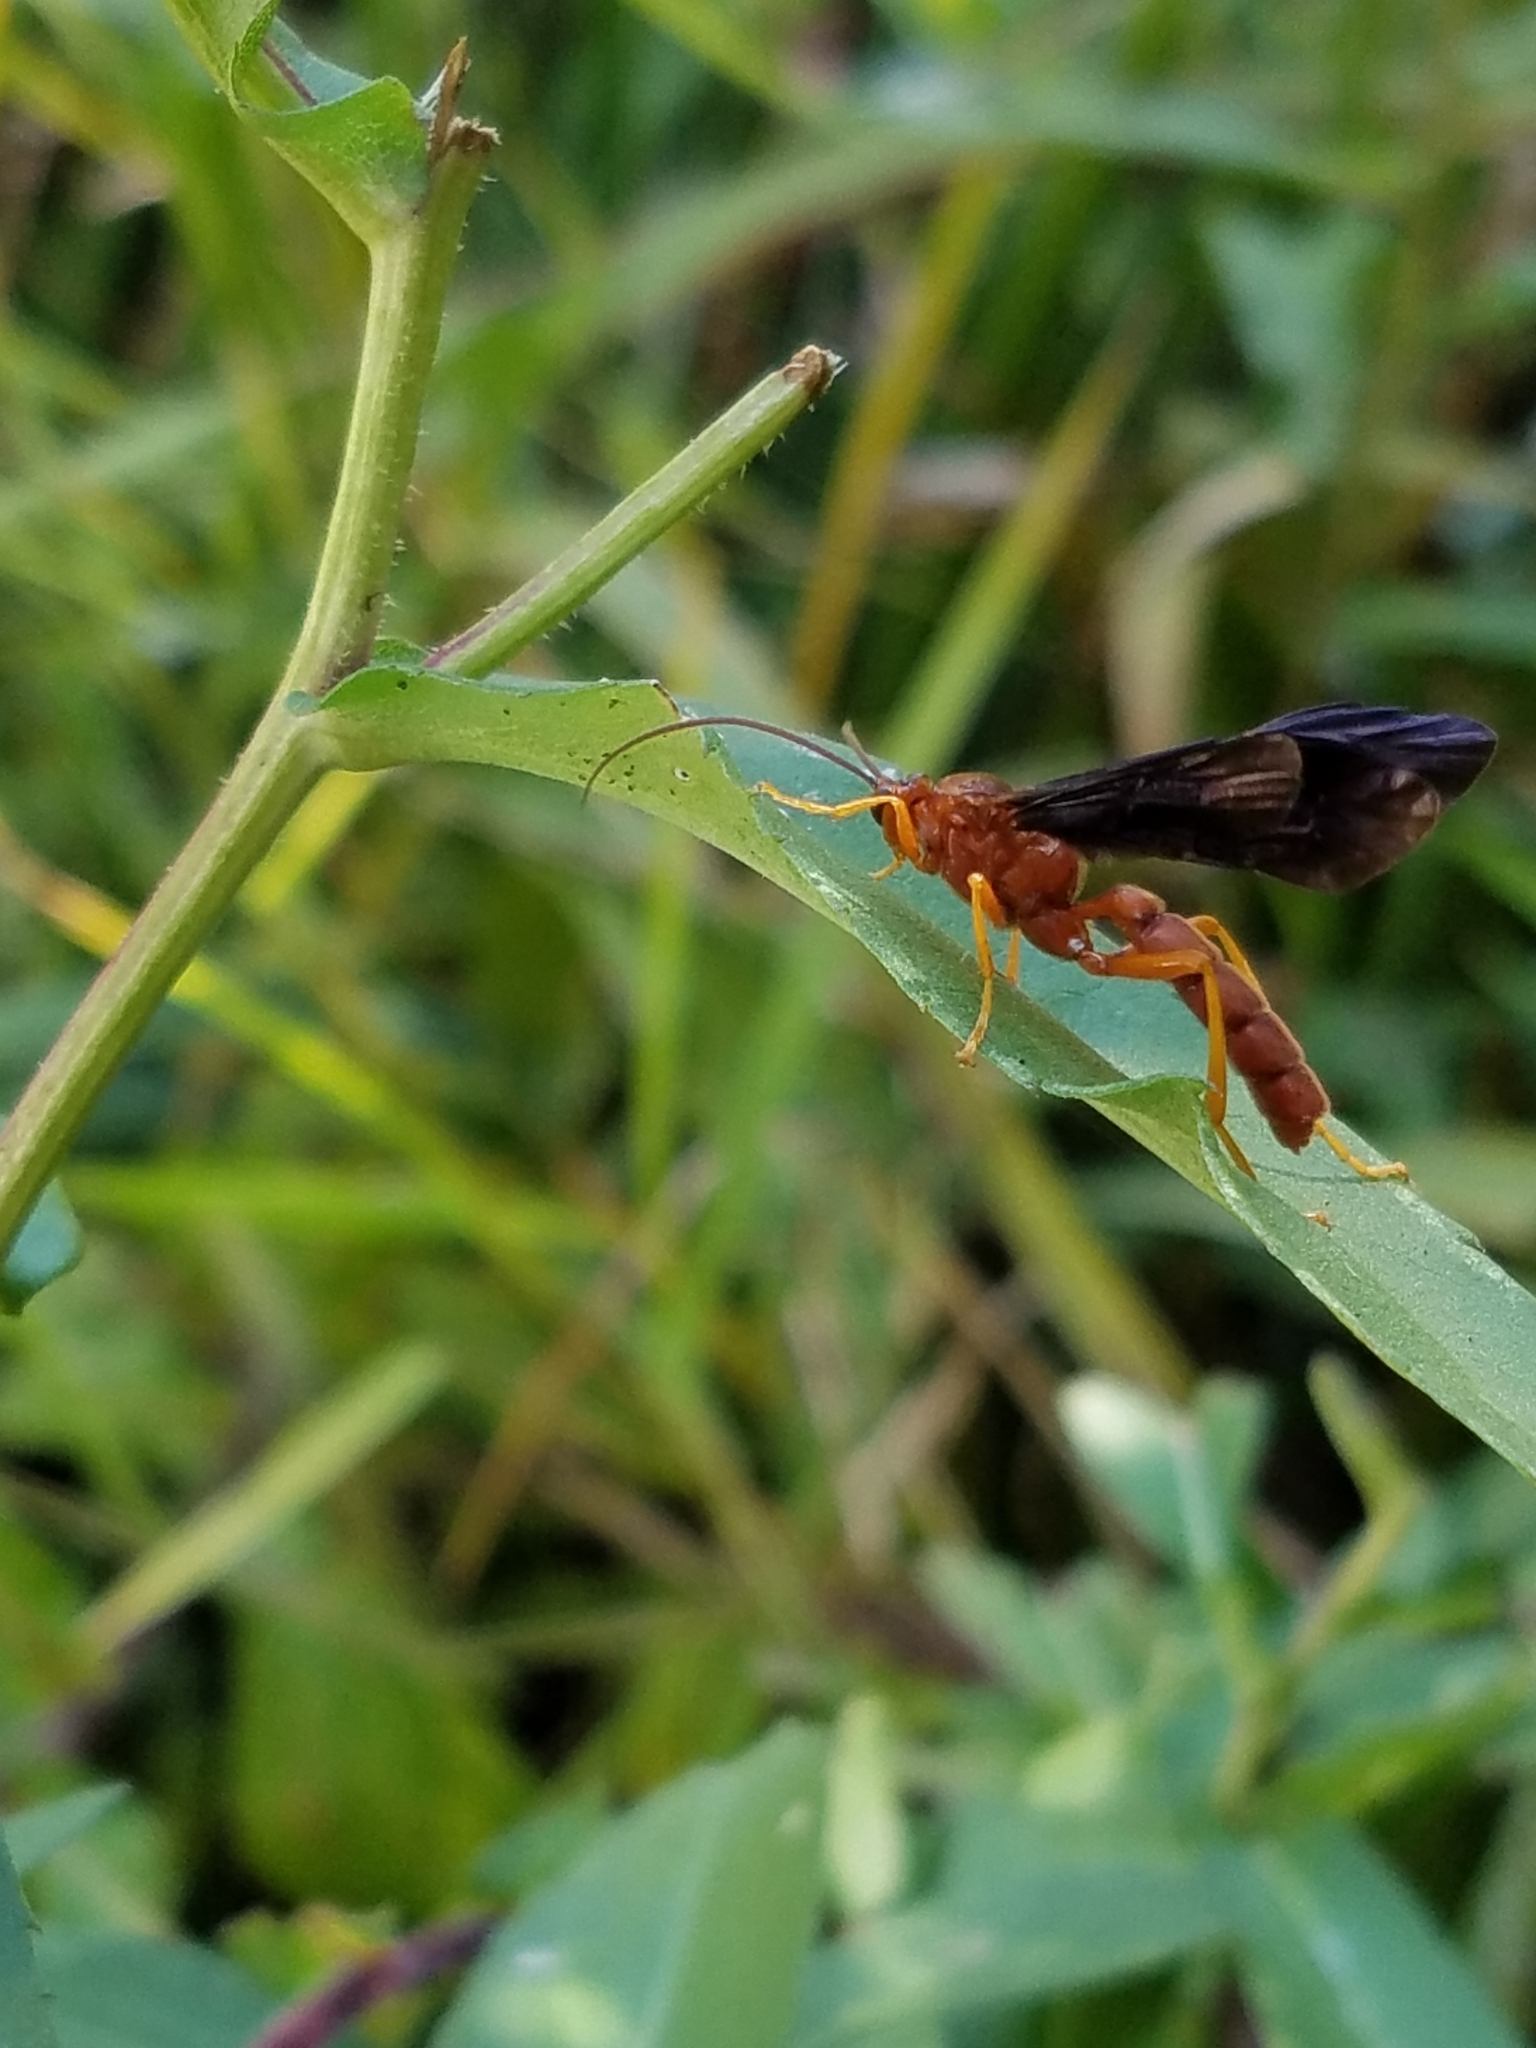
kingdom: Animalia
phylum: Arthropoda
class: Insecta
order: Hymenoptera
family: Ichneumonidae
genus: Trogus
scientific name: Trogus pennator
